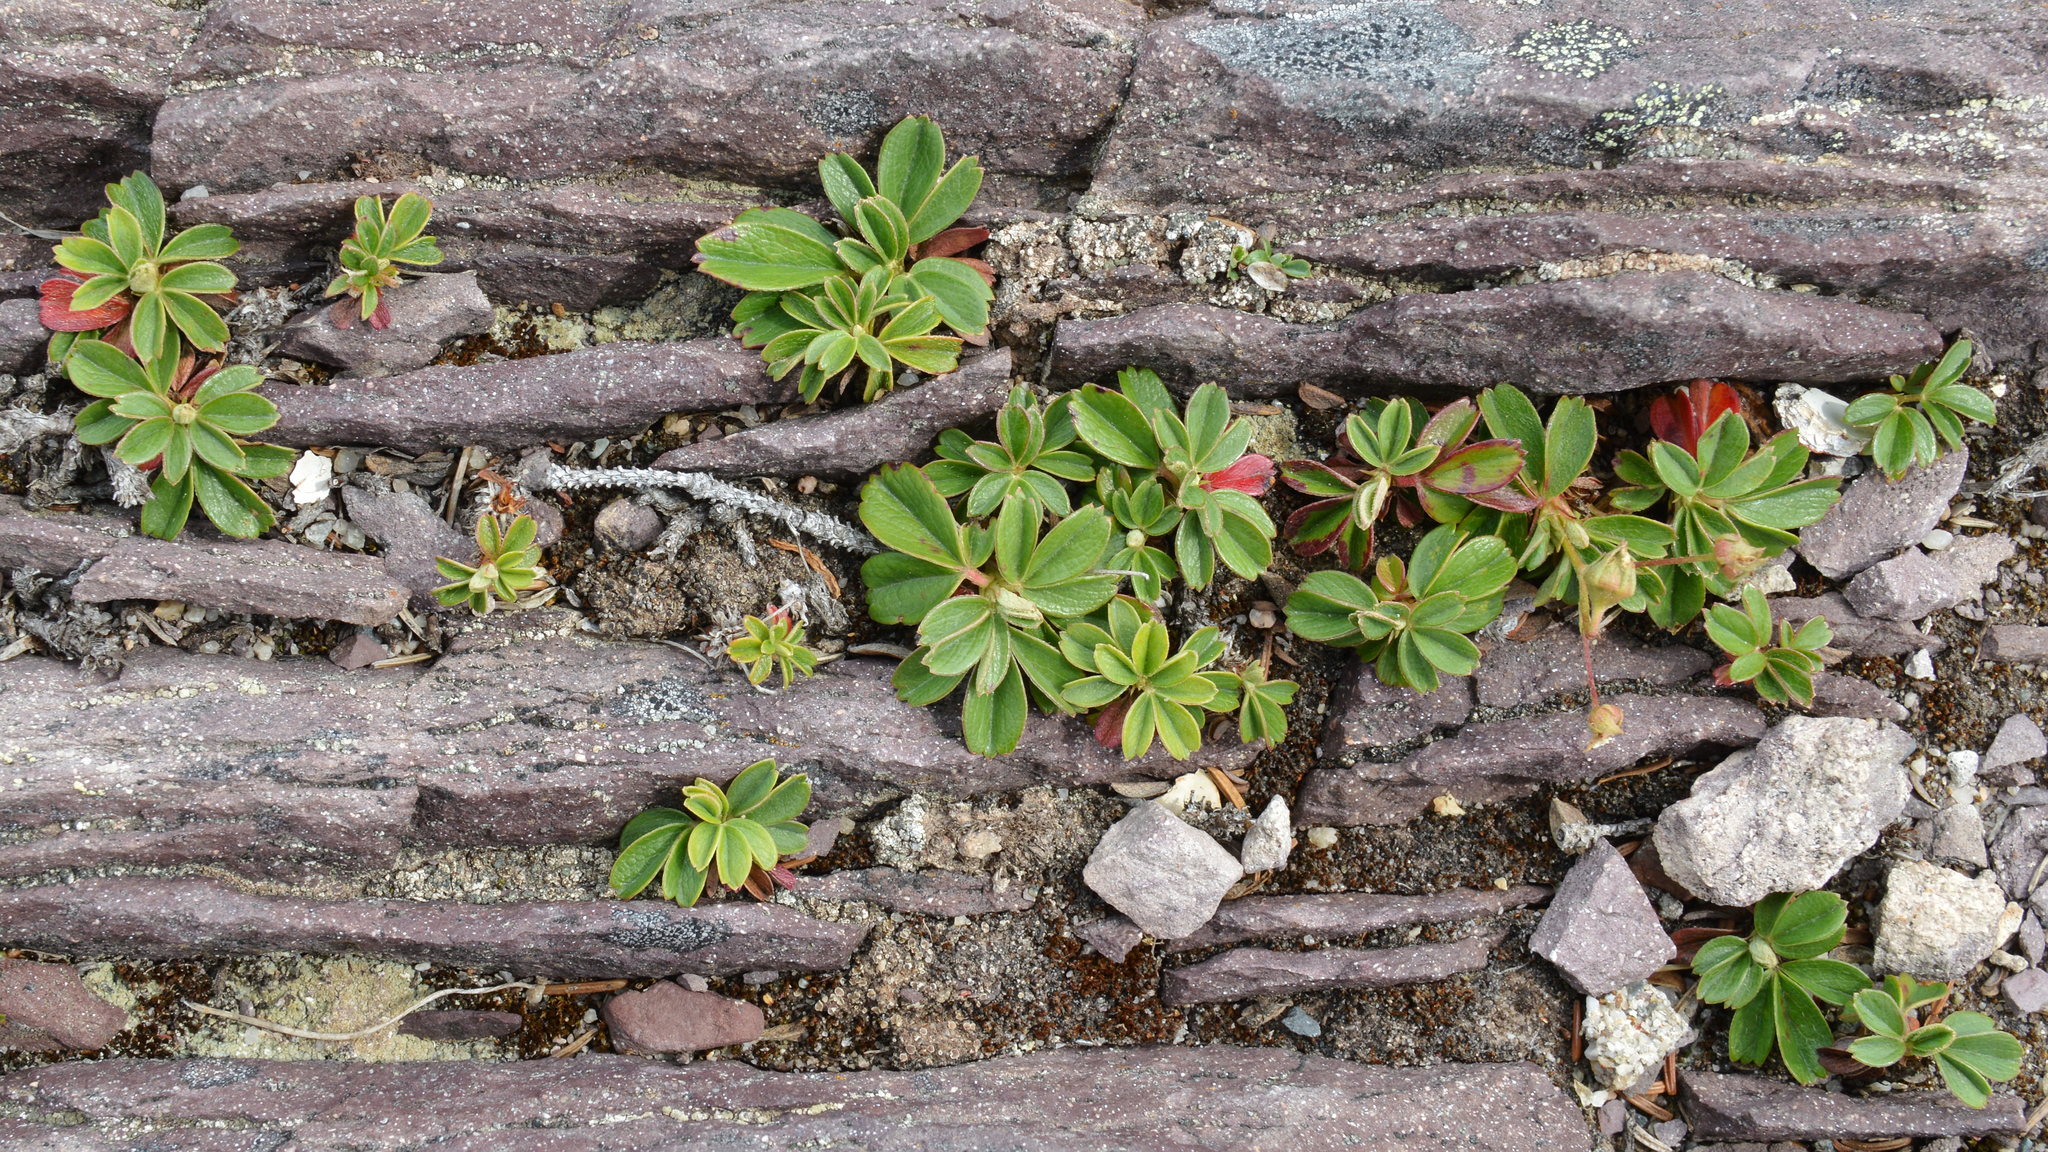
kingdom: Plantae
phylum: Tracheophyta
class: Magnoliopsida
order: Rosales
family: Rosaceae
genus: Sibbaldia
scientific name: Sibbaldia tridentata
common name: Three-toothed cinquefoil
